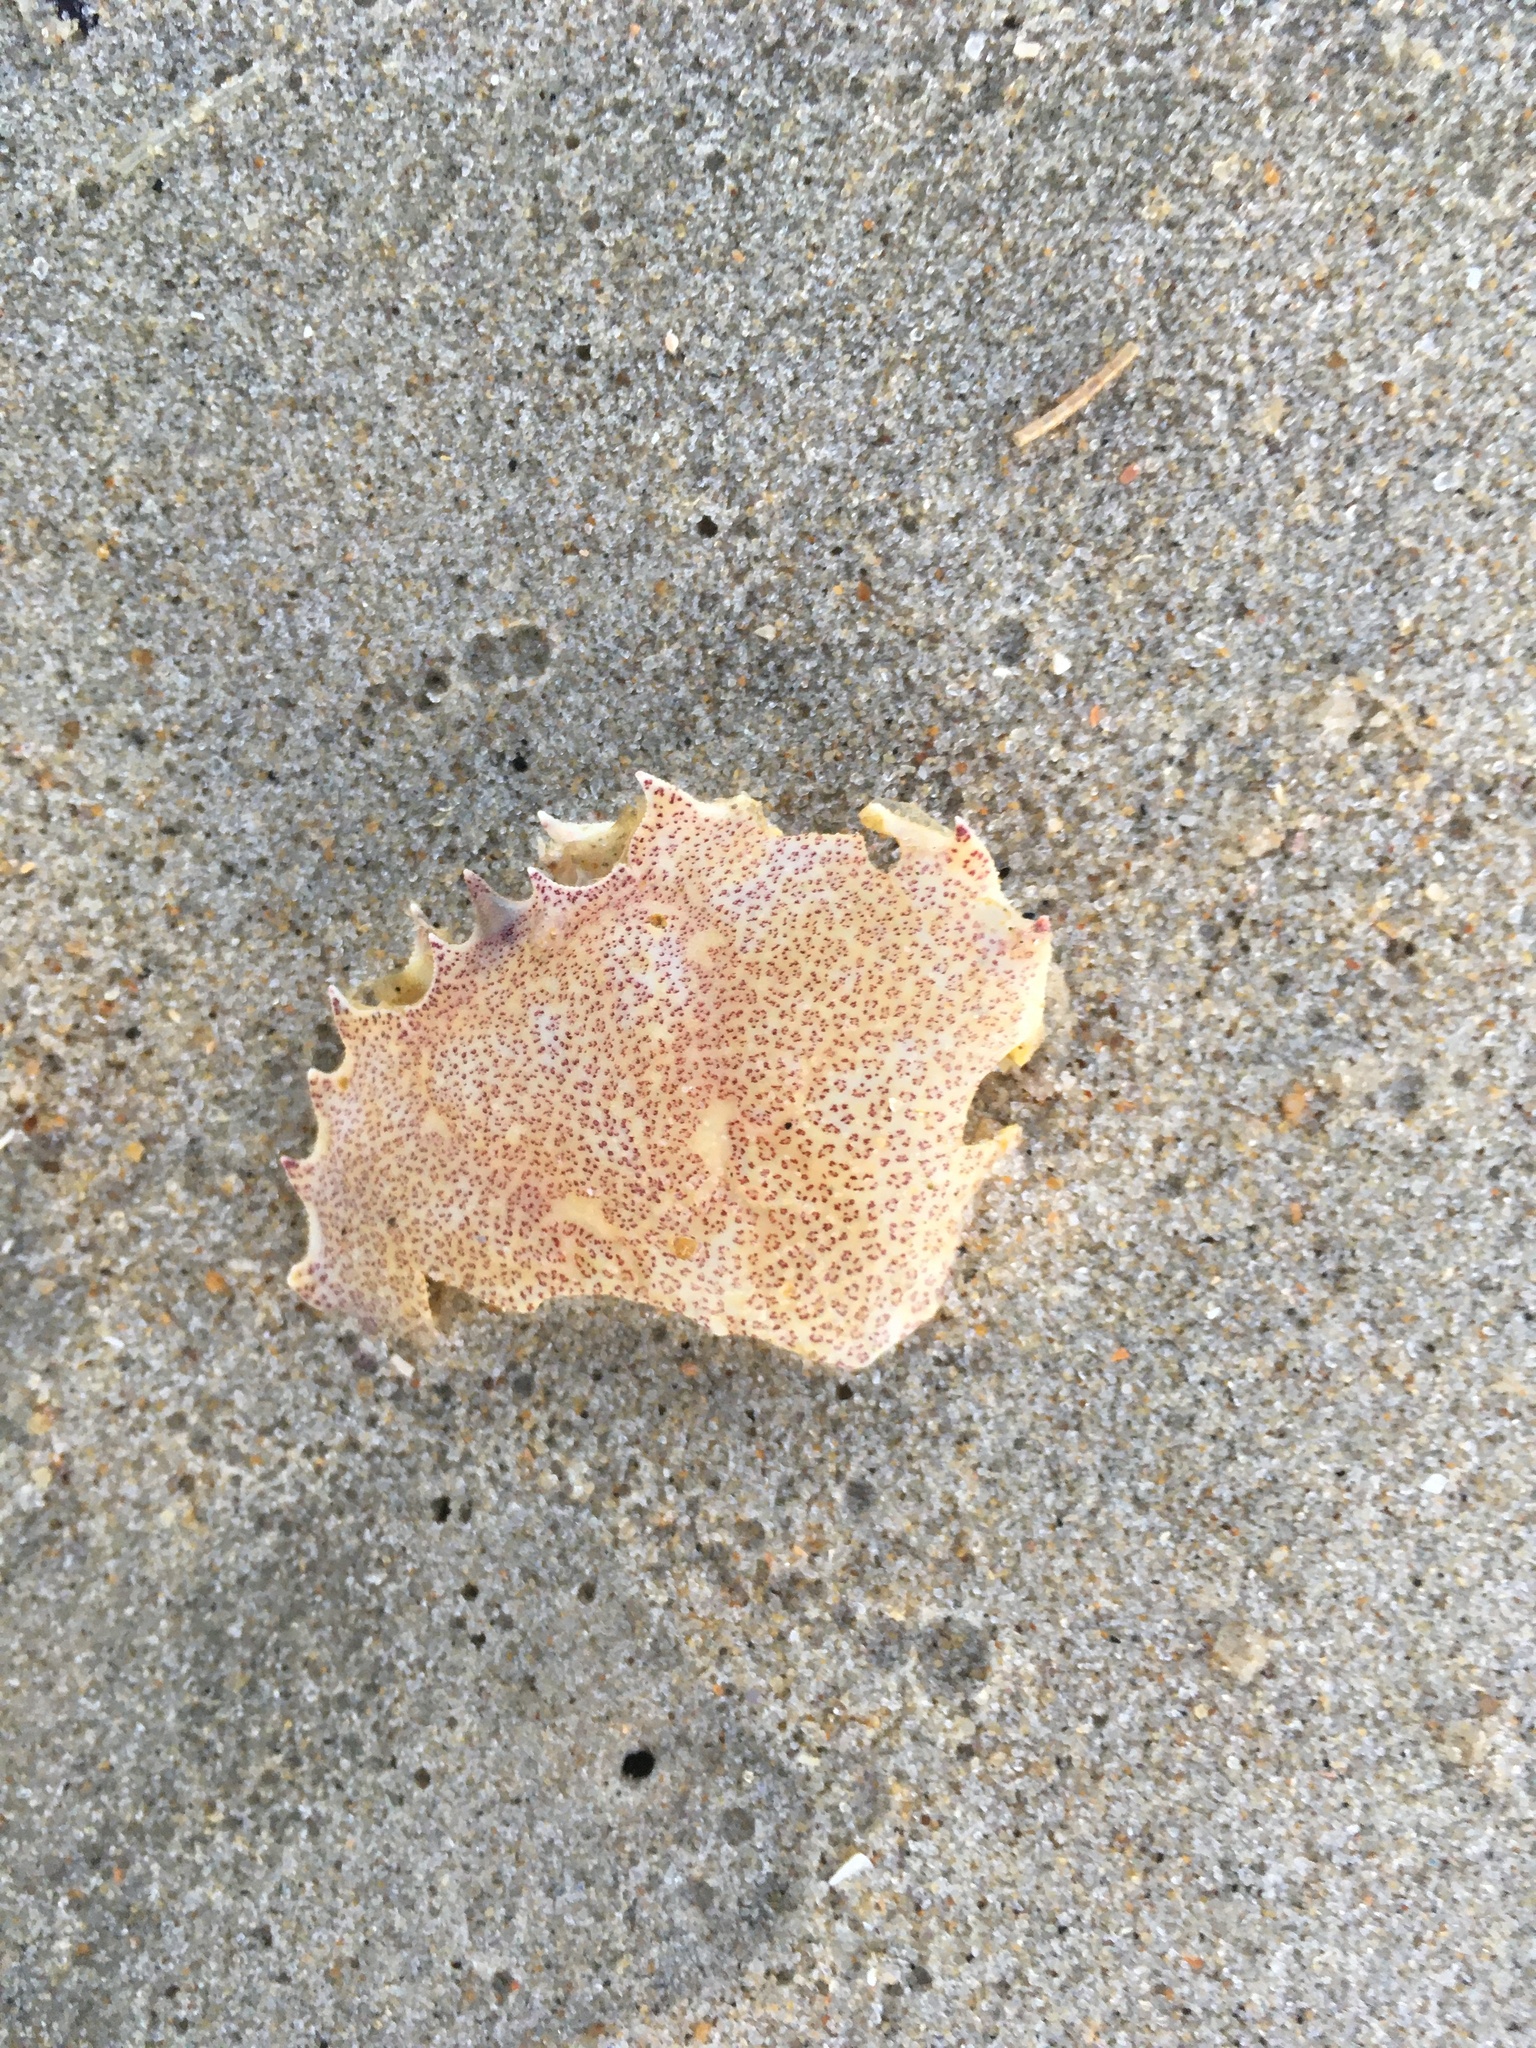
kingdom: Animalia
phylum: Arthropoda
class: Malacostraca
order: Decapoda
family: Ovalipidae
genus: Ovalipes
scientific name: Ovalipes ocellatus
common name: Lady crab
